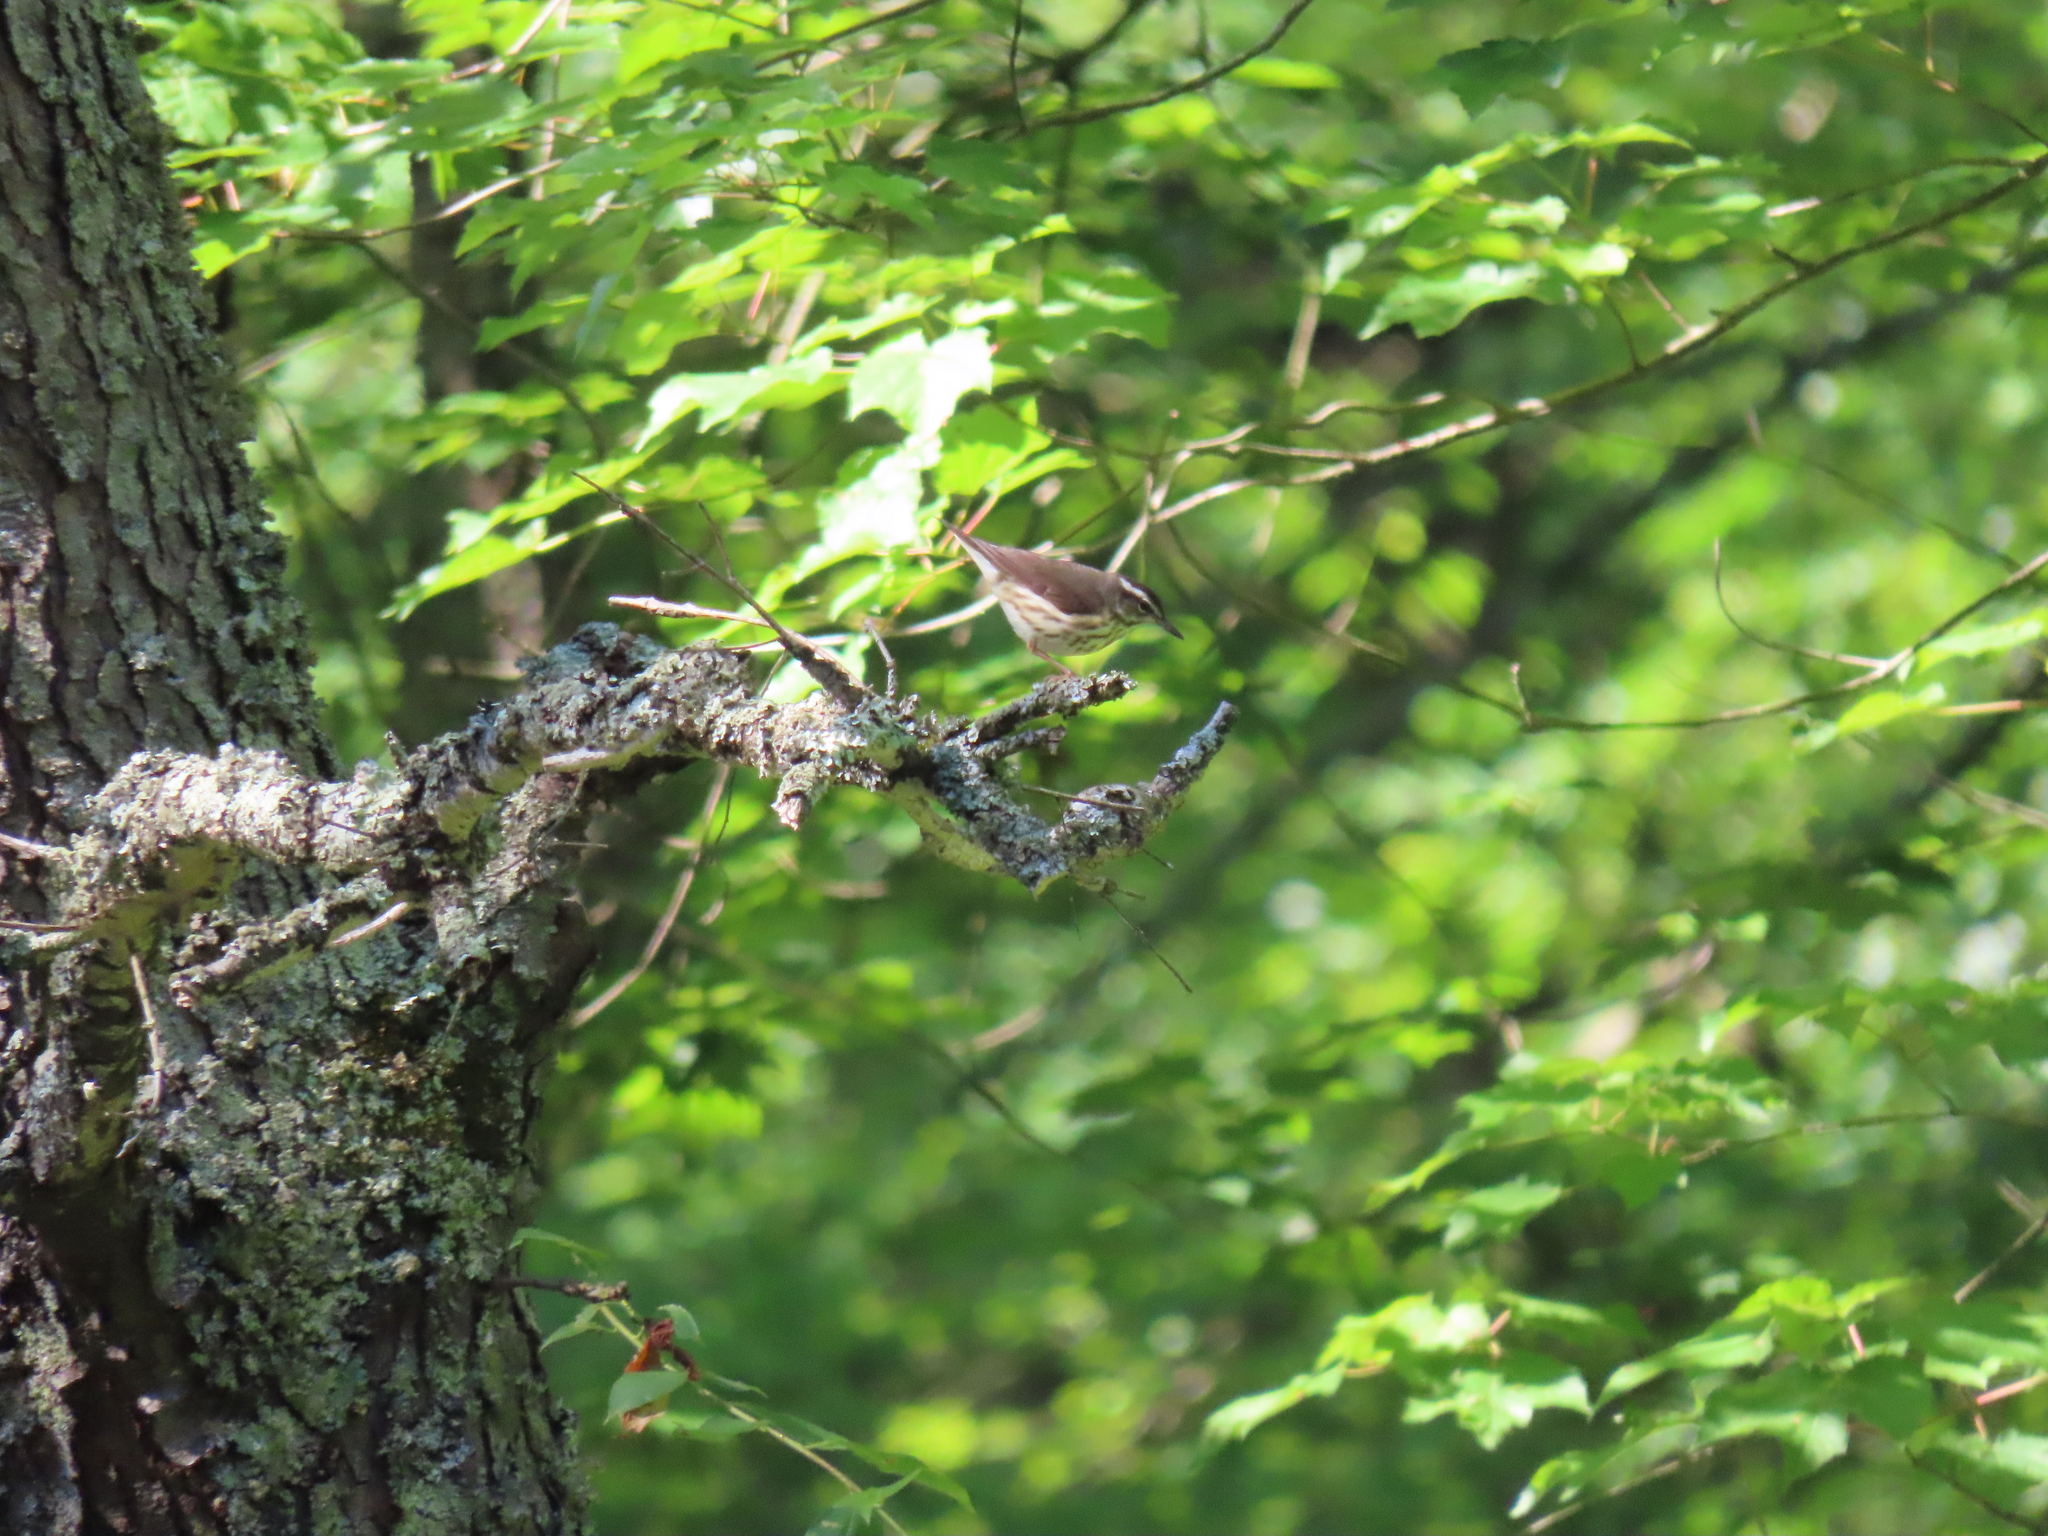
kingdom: Animalia
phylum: Chordata
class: Aves
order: Passeriformes
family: Parulidae
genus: Parkesia
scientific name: Parkesia motacilla
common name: Louisiana waterthrush
